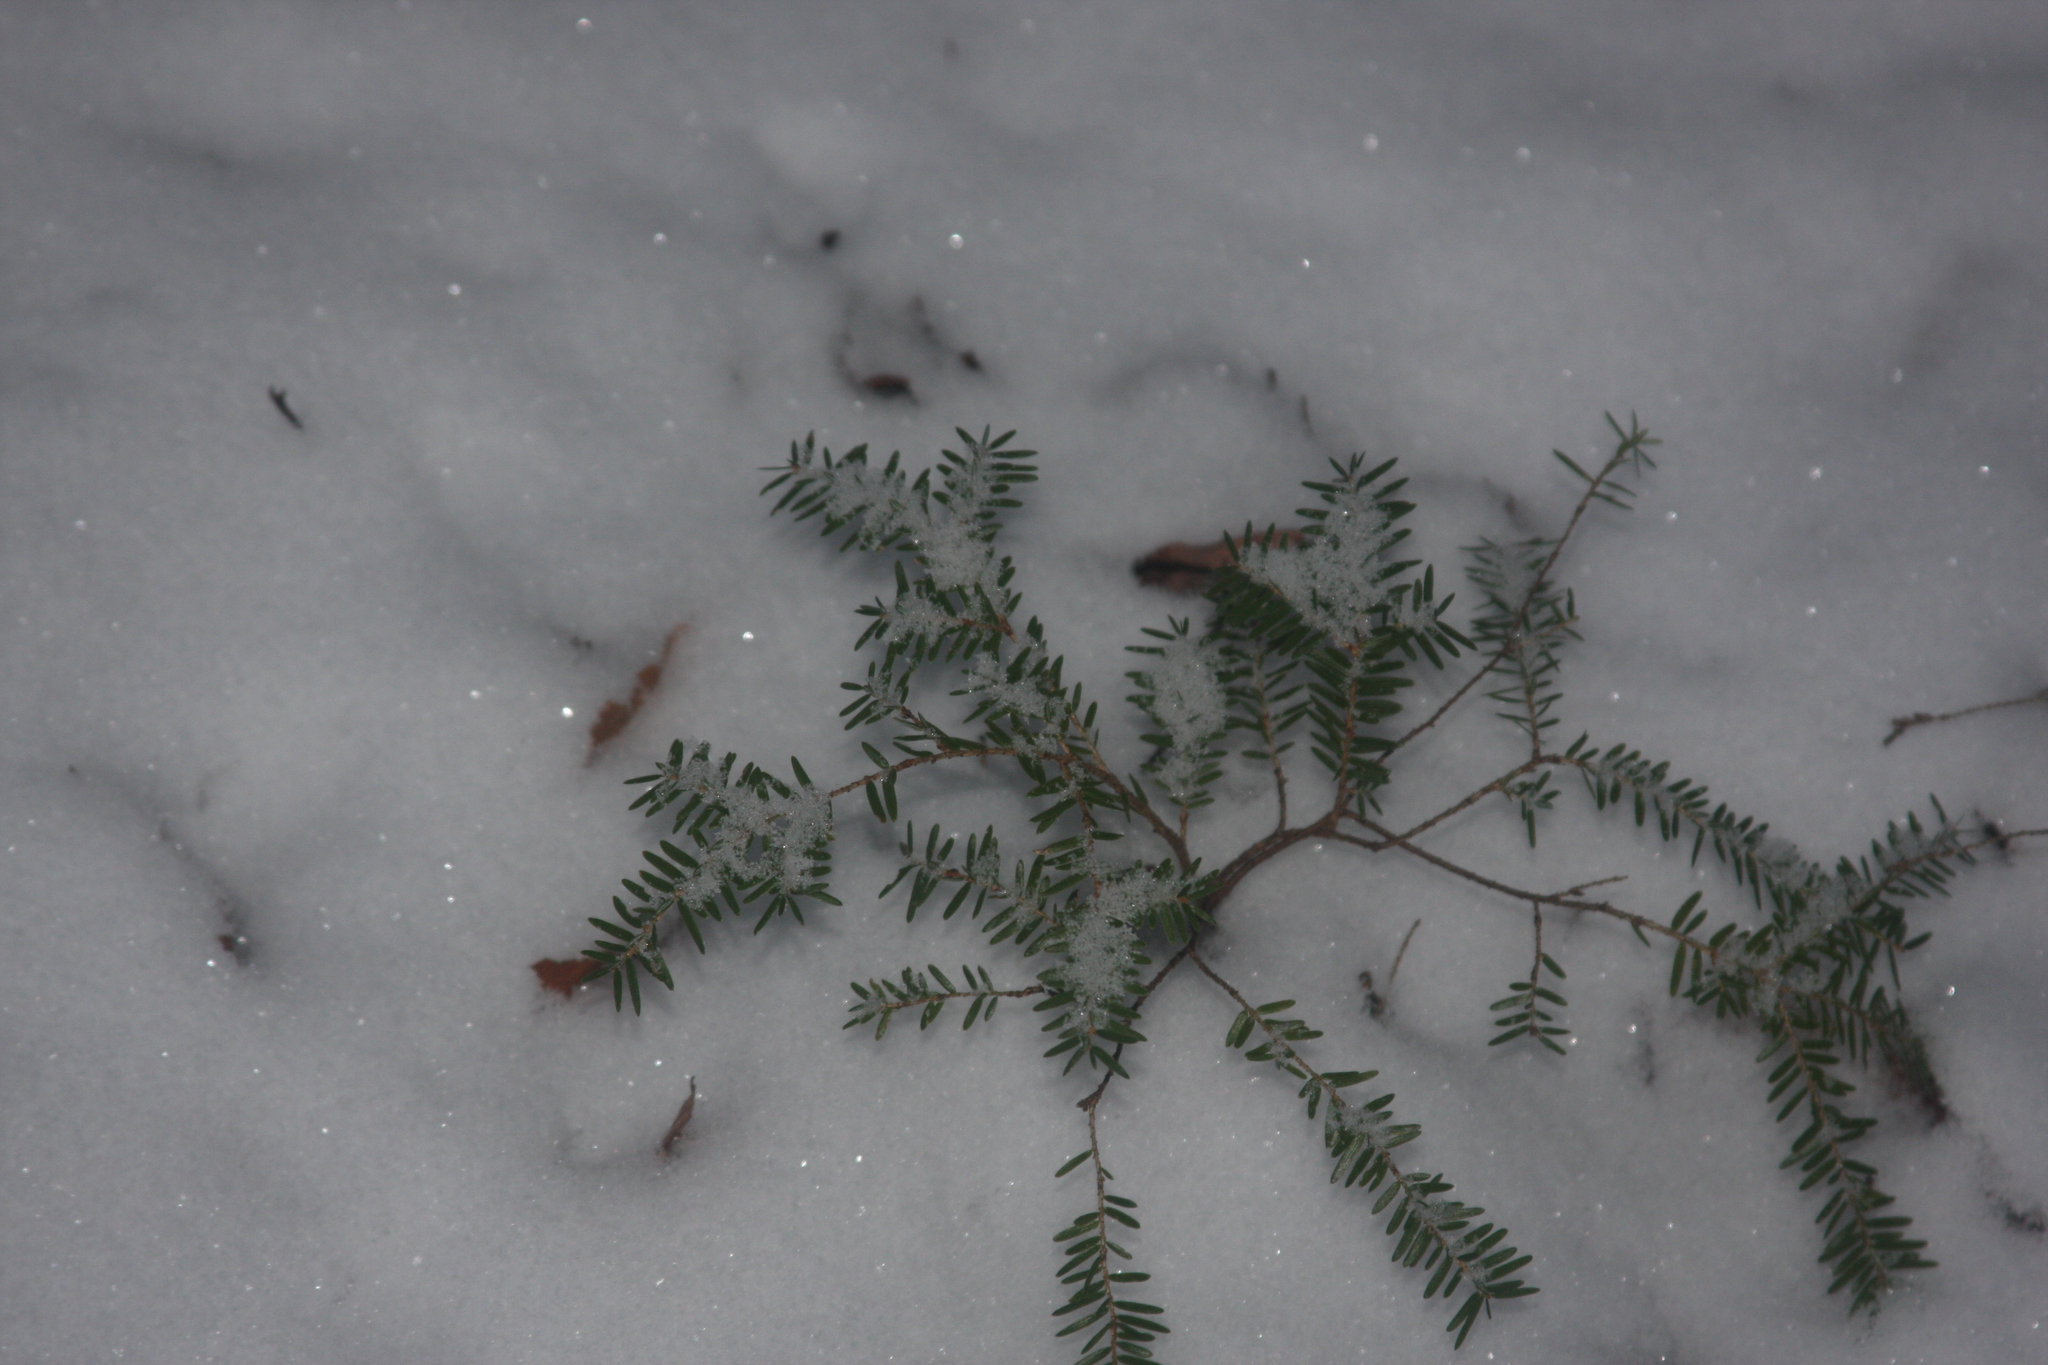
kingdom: Plantae
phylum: Tracheophyta
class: Pinopsida
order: Pinales
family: Pinaceae
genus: Tsuga
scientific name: Tsuga canadensis
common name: Eastern hemlock
